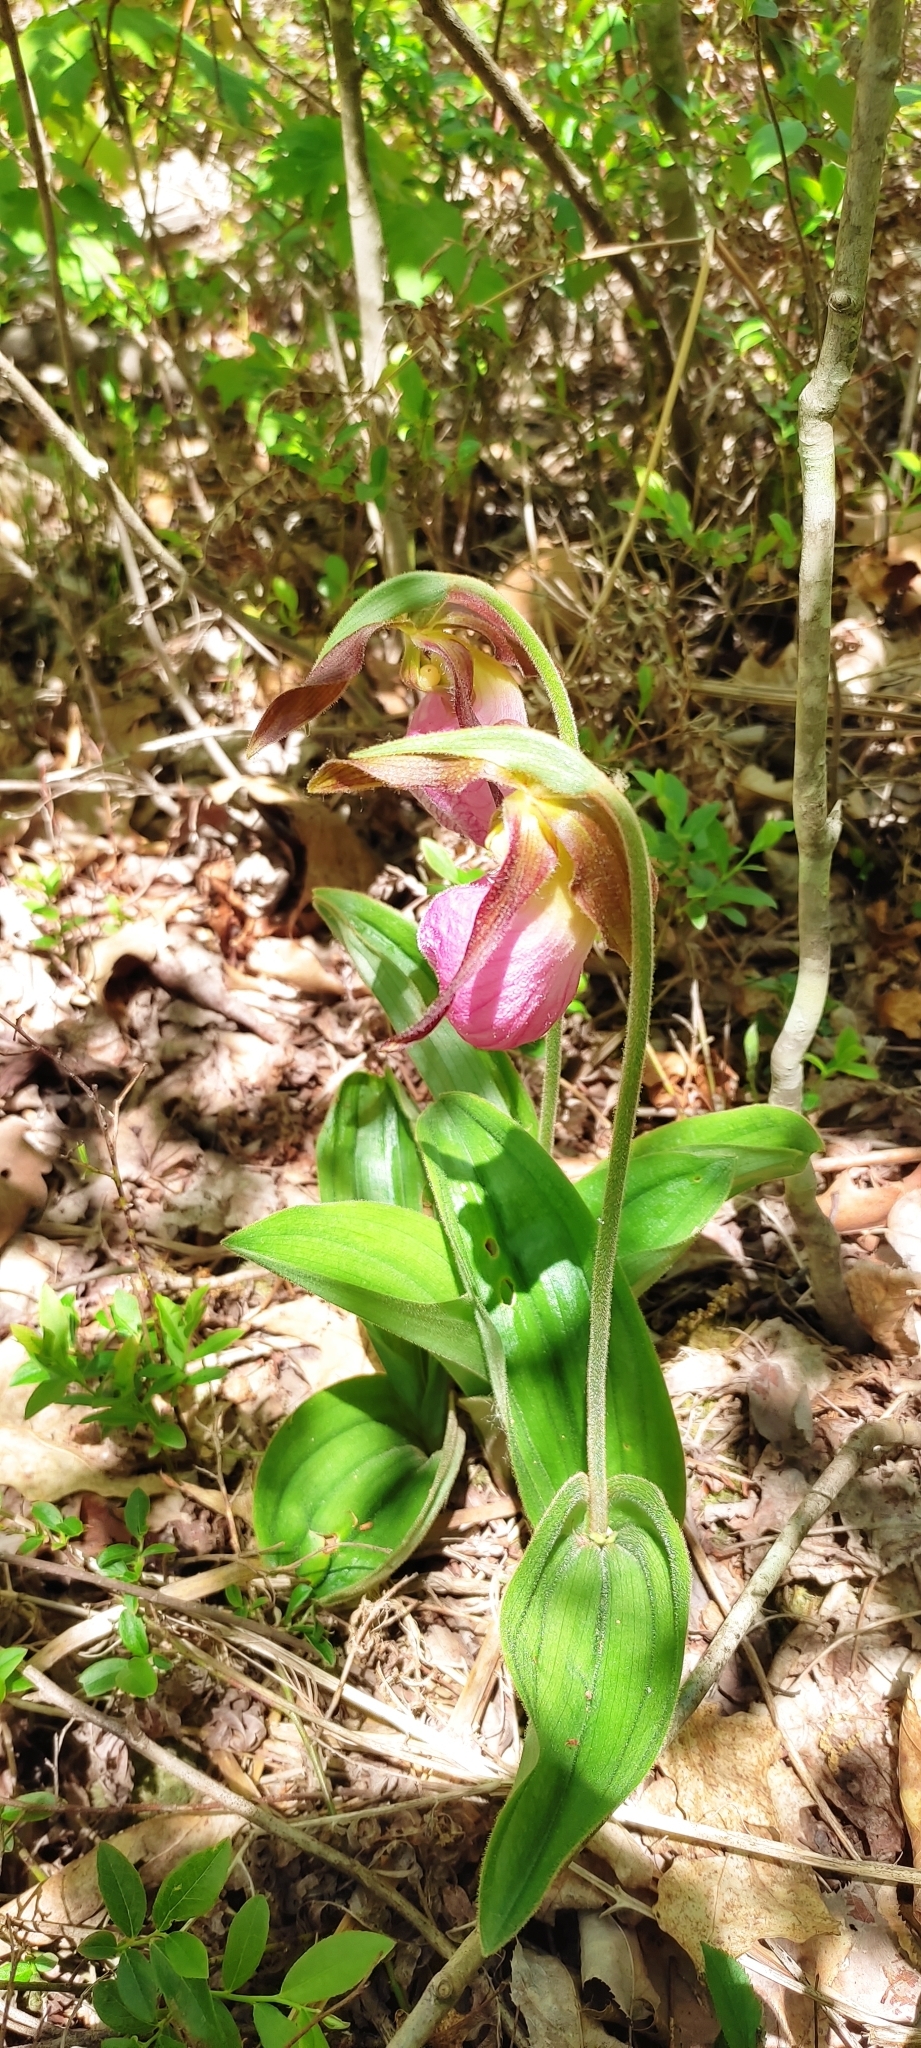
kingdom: Plantae
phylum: Tracheophyta
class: Liliopsida
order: Asparagales
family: Orchidaceae
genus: Cypripedium
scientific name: Cypripedium acaule
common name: Pink lady's-slipper
